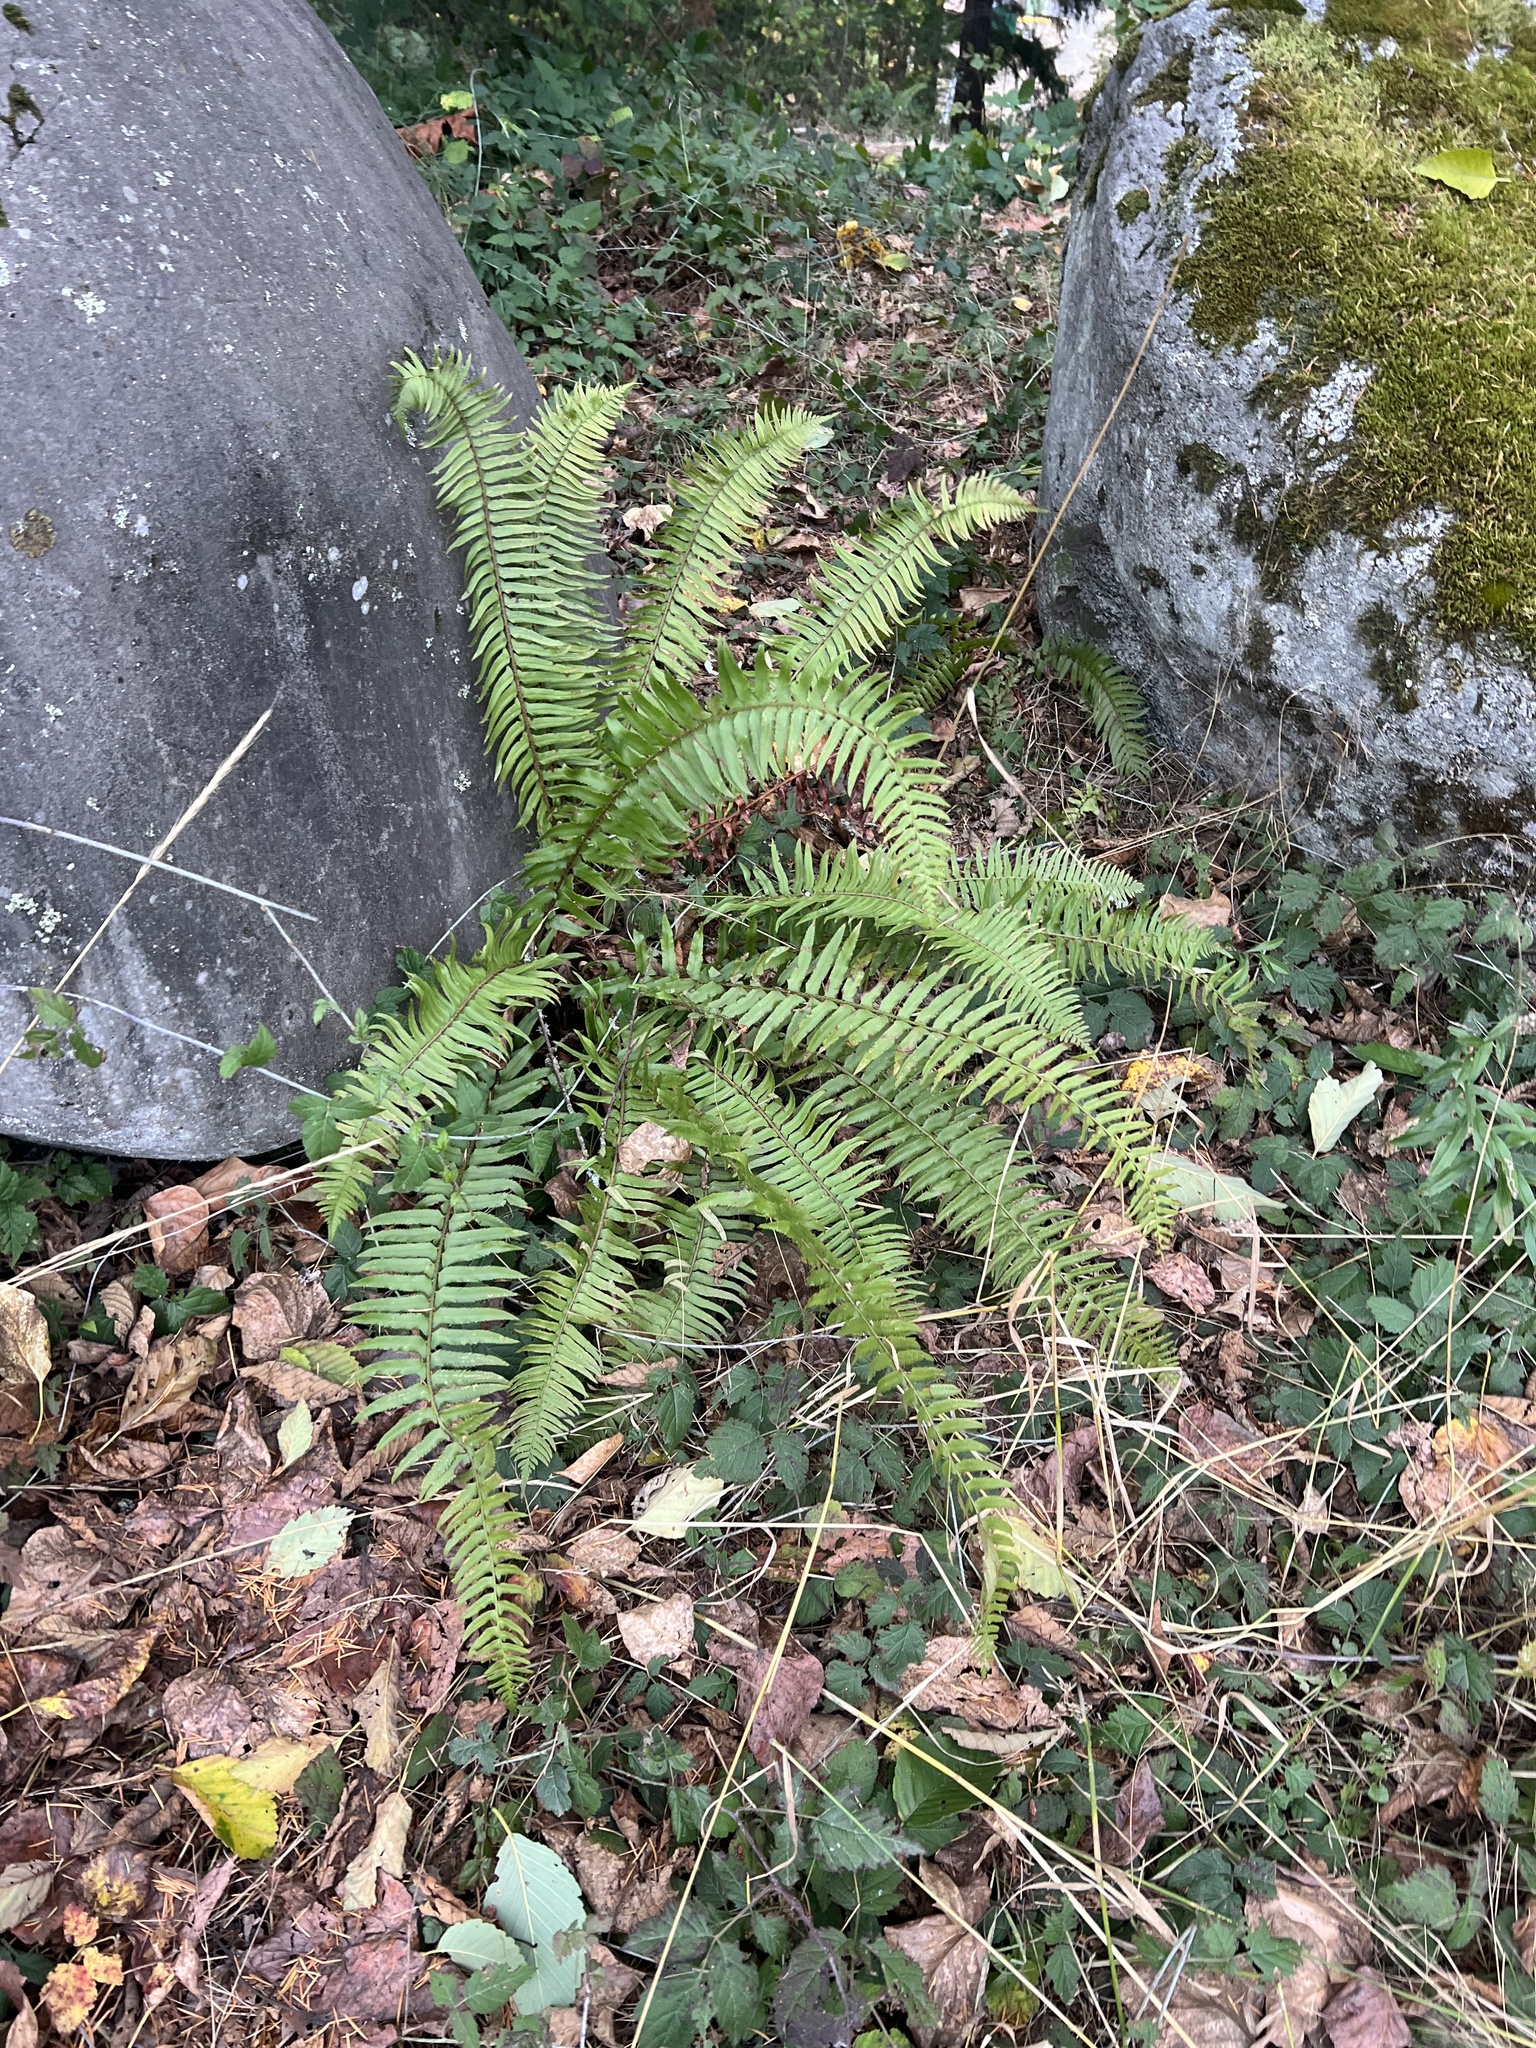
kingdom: Plantae
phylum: Tracheophyta
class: Polypodiopsida
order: Polypodiales
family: Dryopteridaceae
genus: Polystichum
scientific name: Polystichum munitum
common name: Western sword-fern
